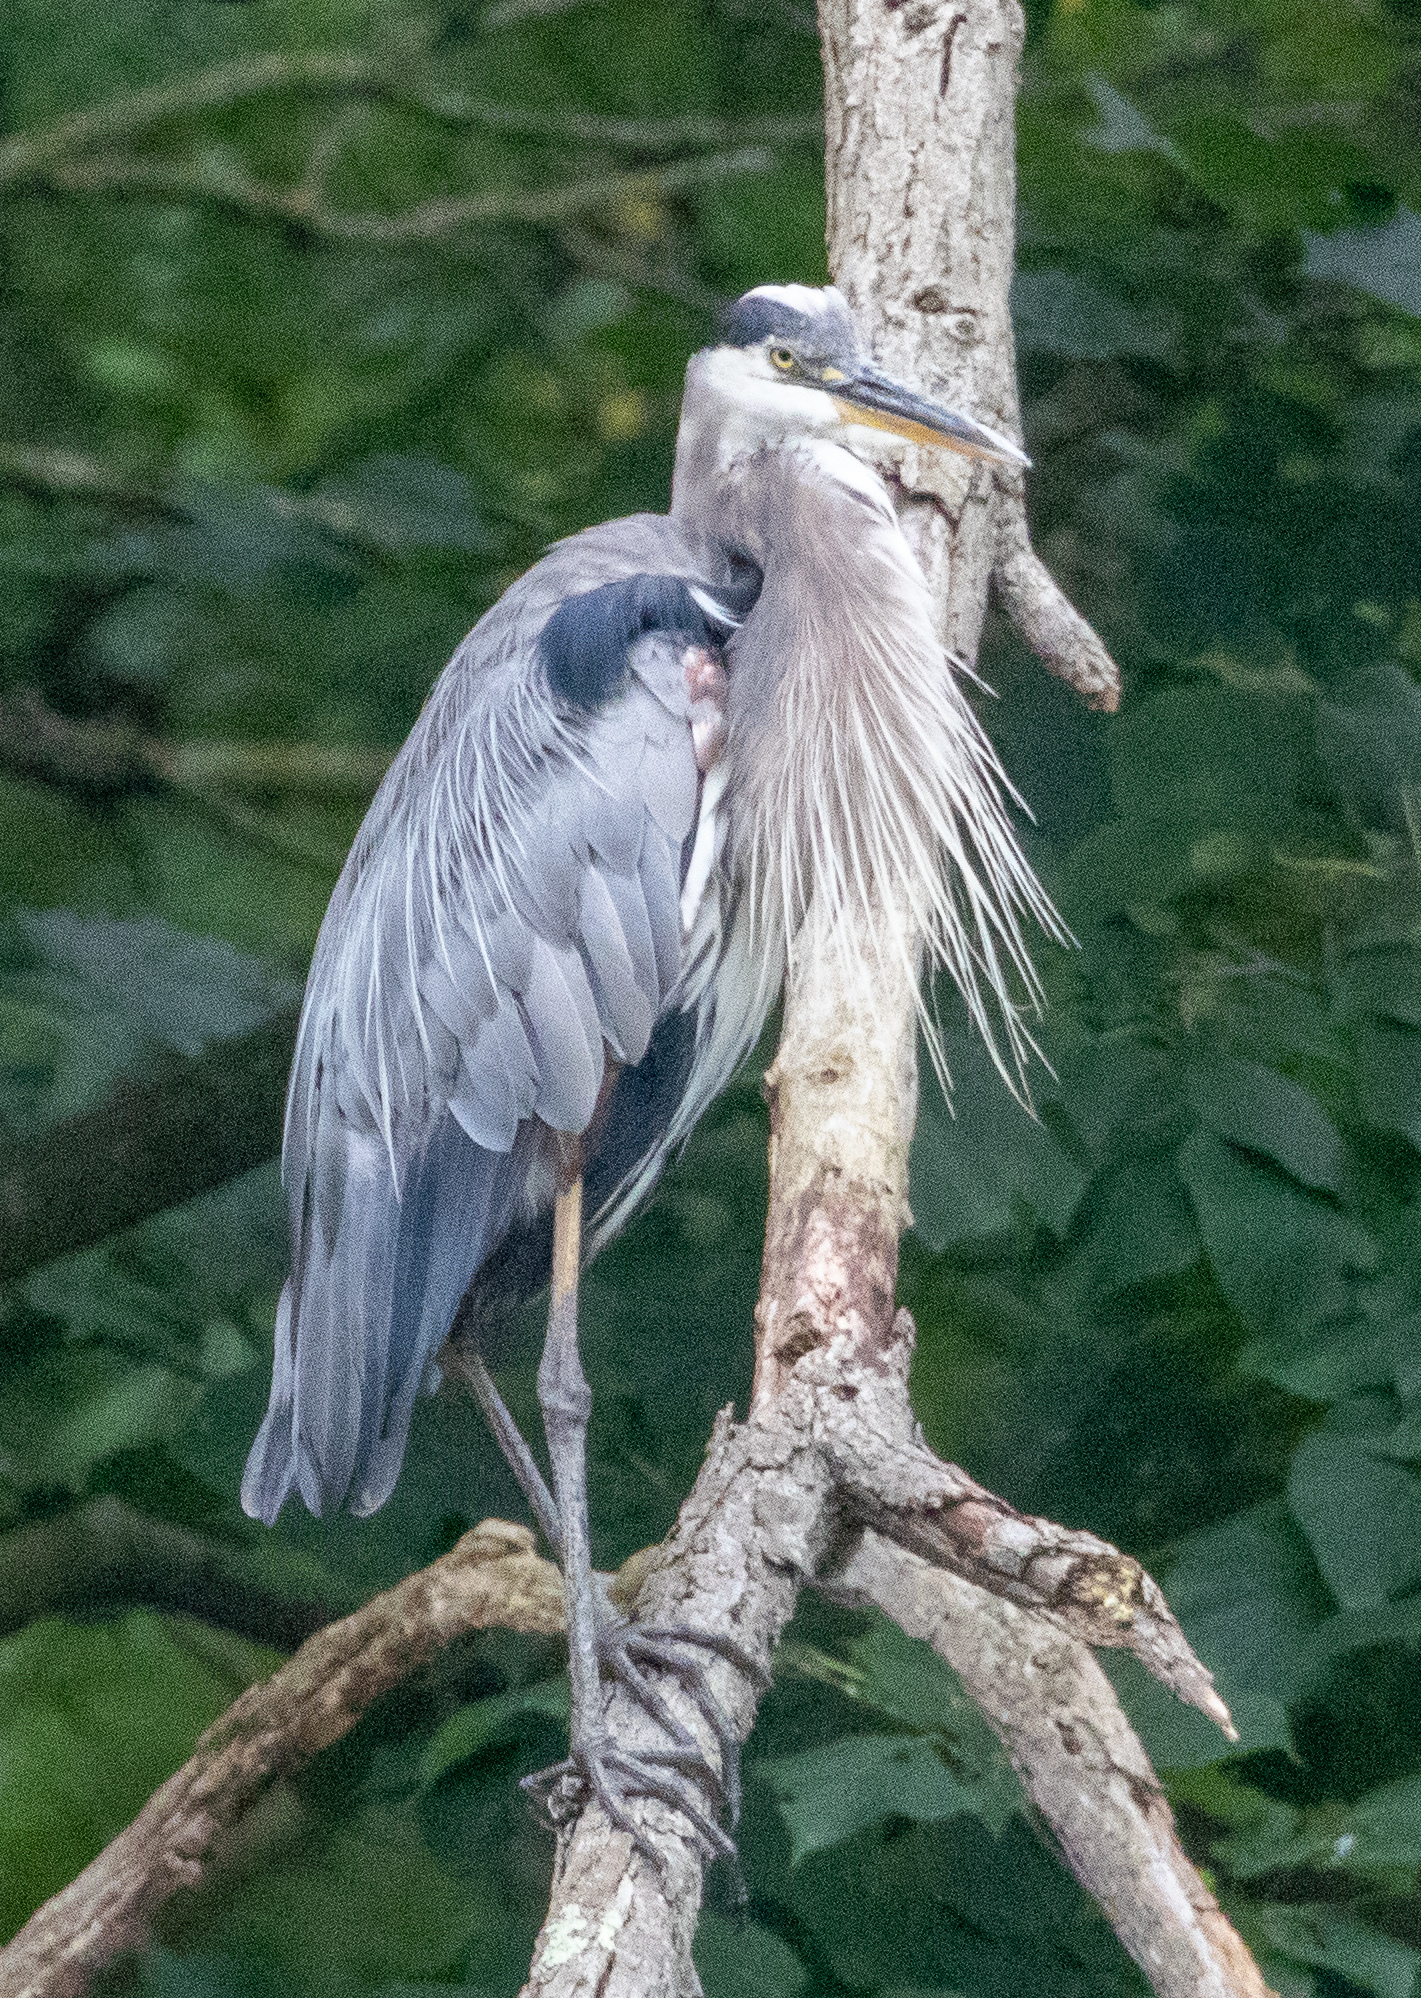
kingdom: Animalia
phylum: Chordata
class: Aves
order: Pelecaniformes
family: Ardeidae
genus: Ardea
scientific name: Ardea herodias
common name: Great blue heron
